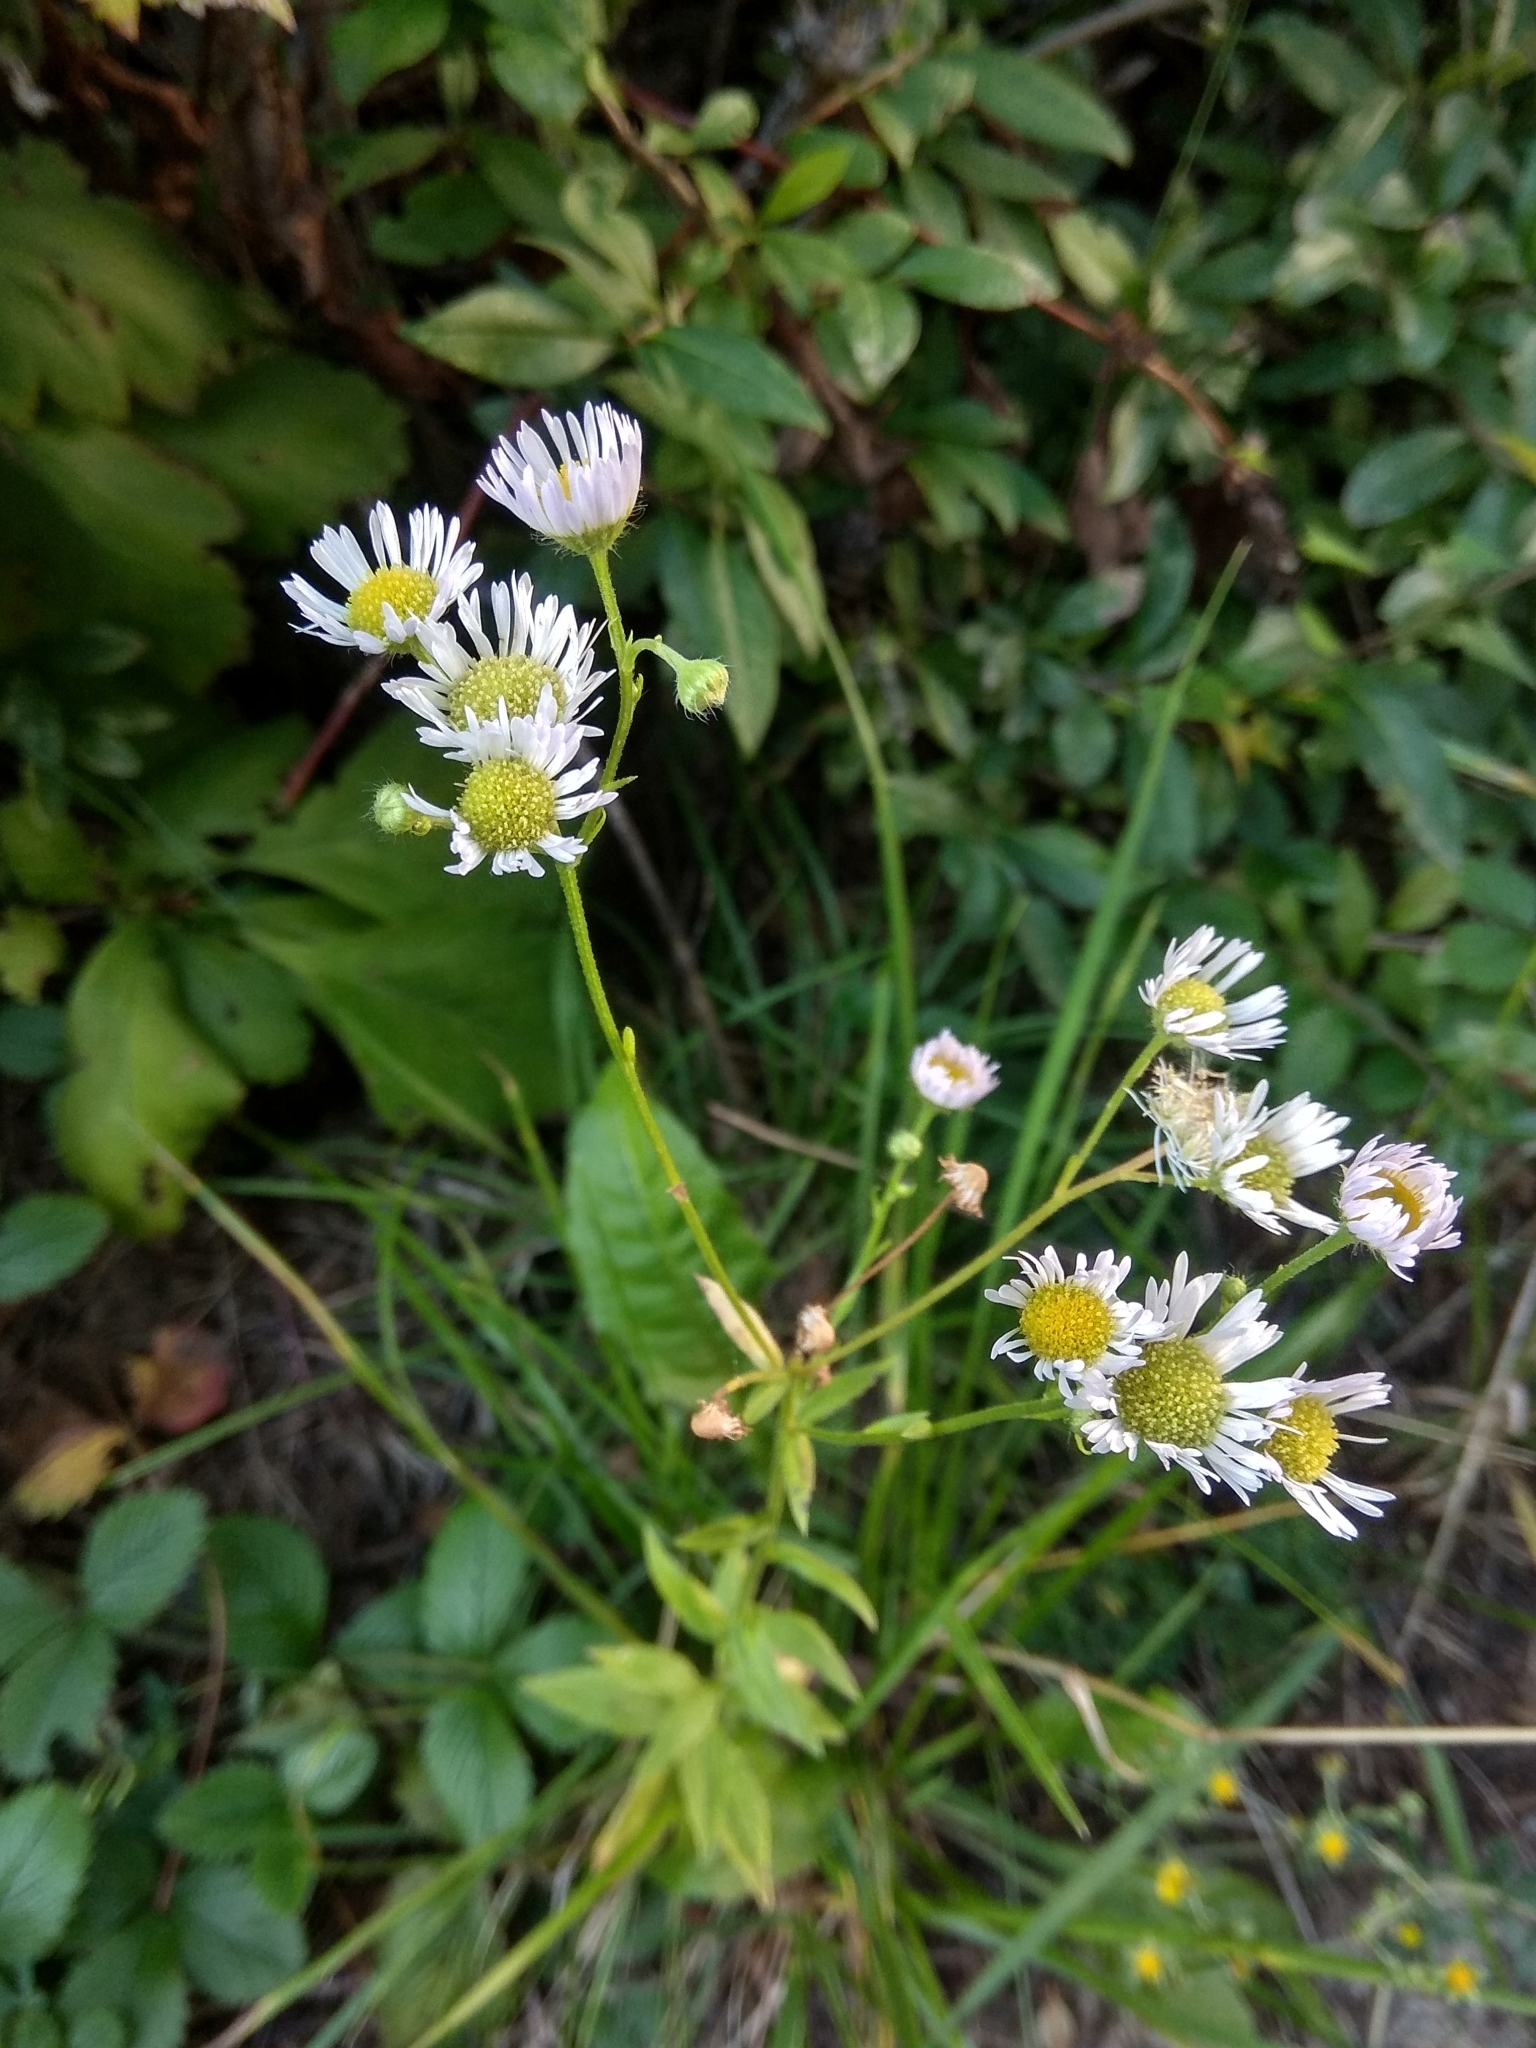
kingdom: Plantae
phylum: Tracheophyta
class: Magnoliopsida
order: Asterales
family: Asteraceae
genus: Erigeron
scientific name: Erigeron annuus
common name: Tall fleabane
